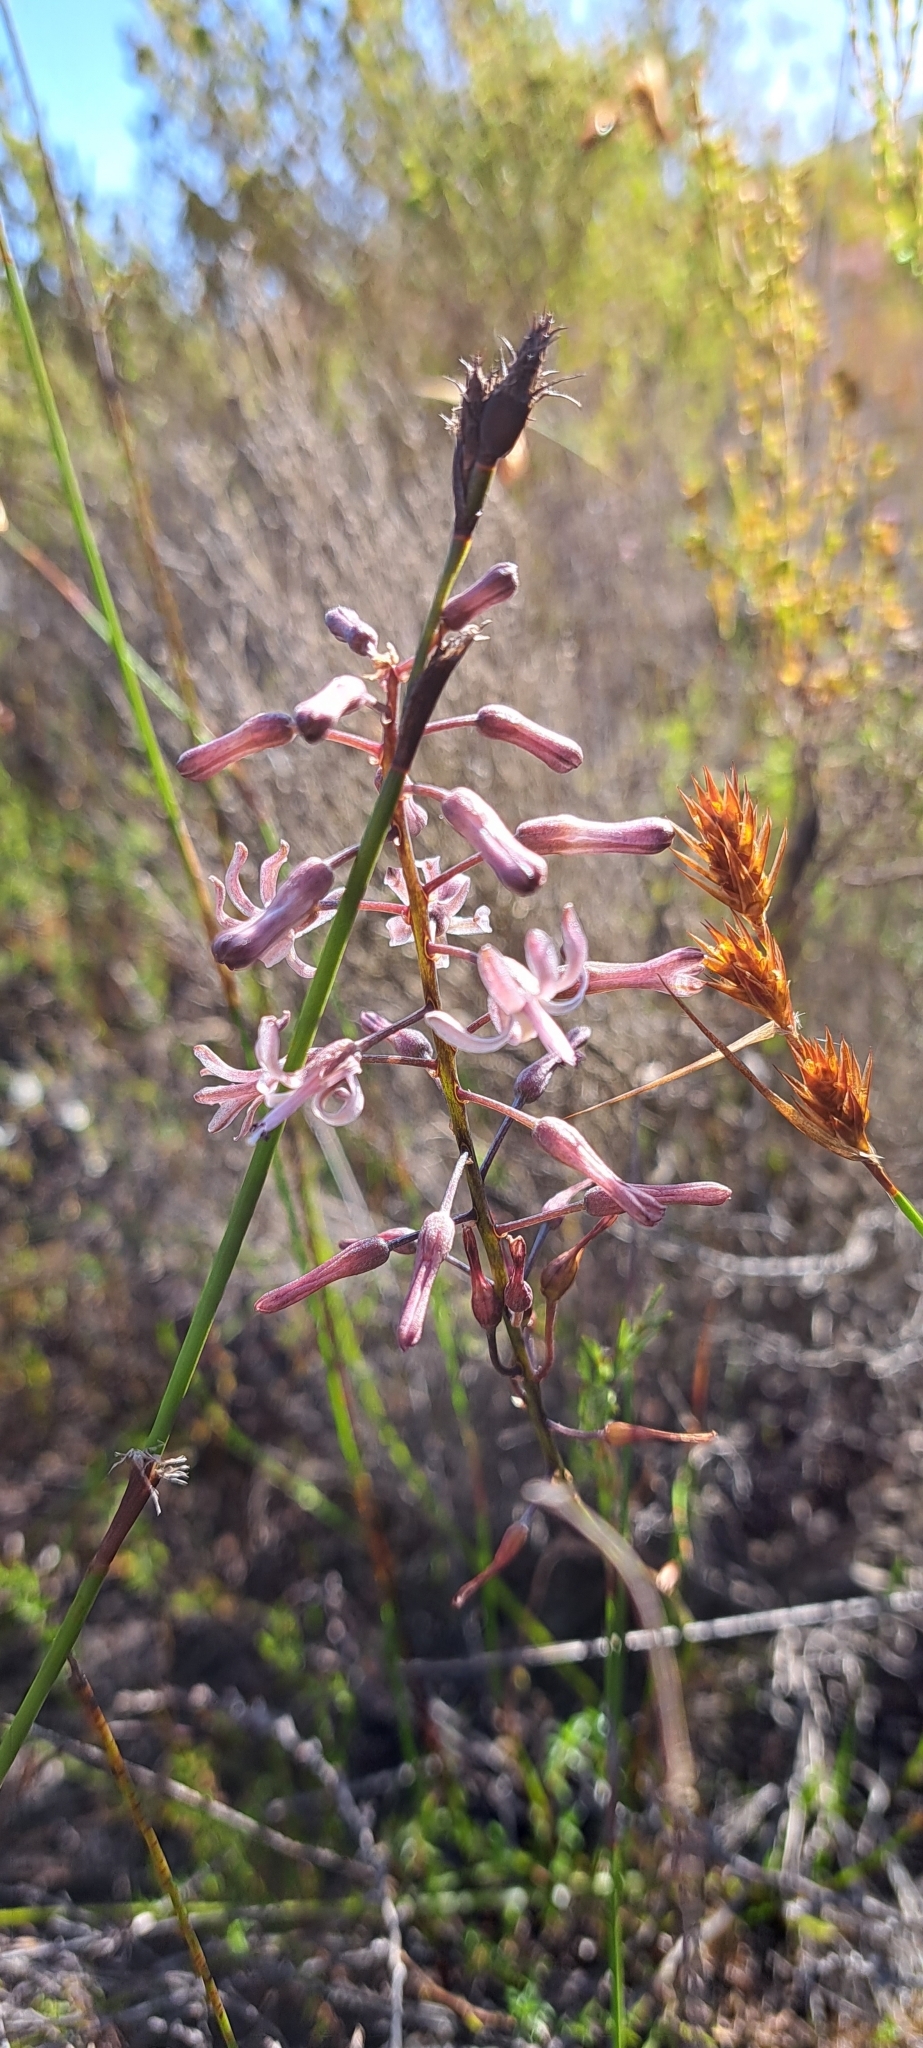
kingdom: Plantae
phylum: Tracheophyta
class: Liliopsida
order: Asparagales
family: Asparagaceae
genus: Drimia
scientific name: Drimia media
